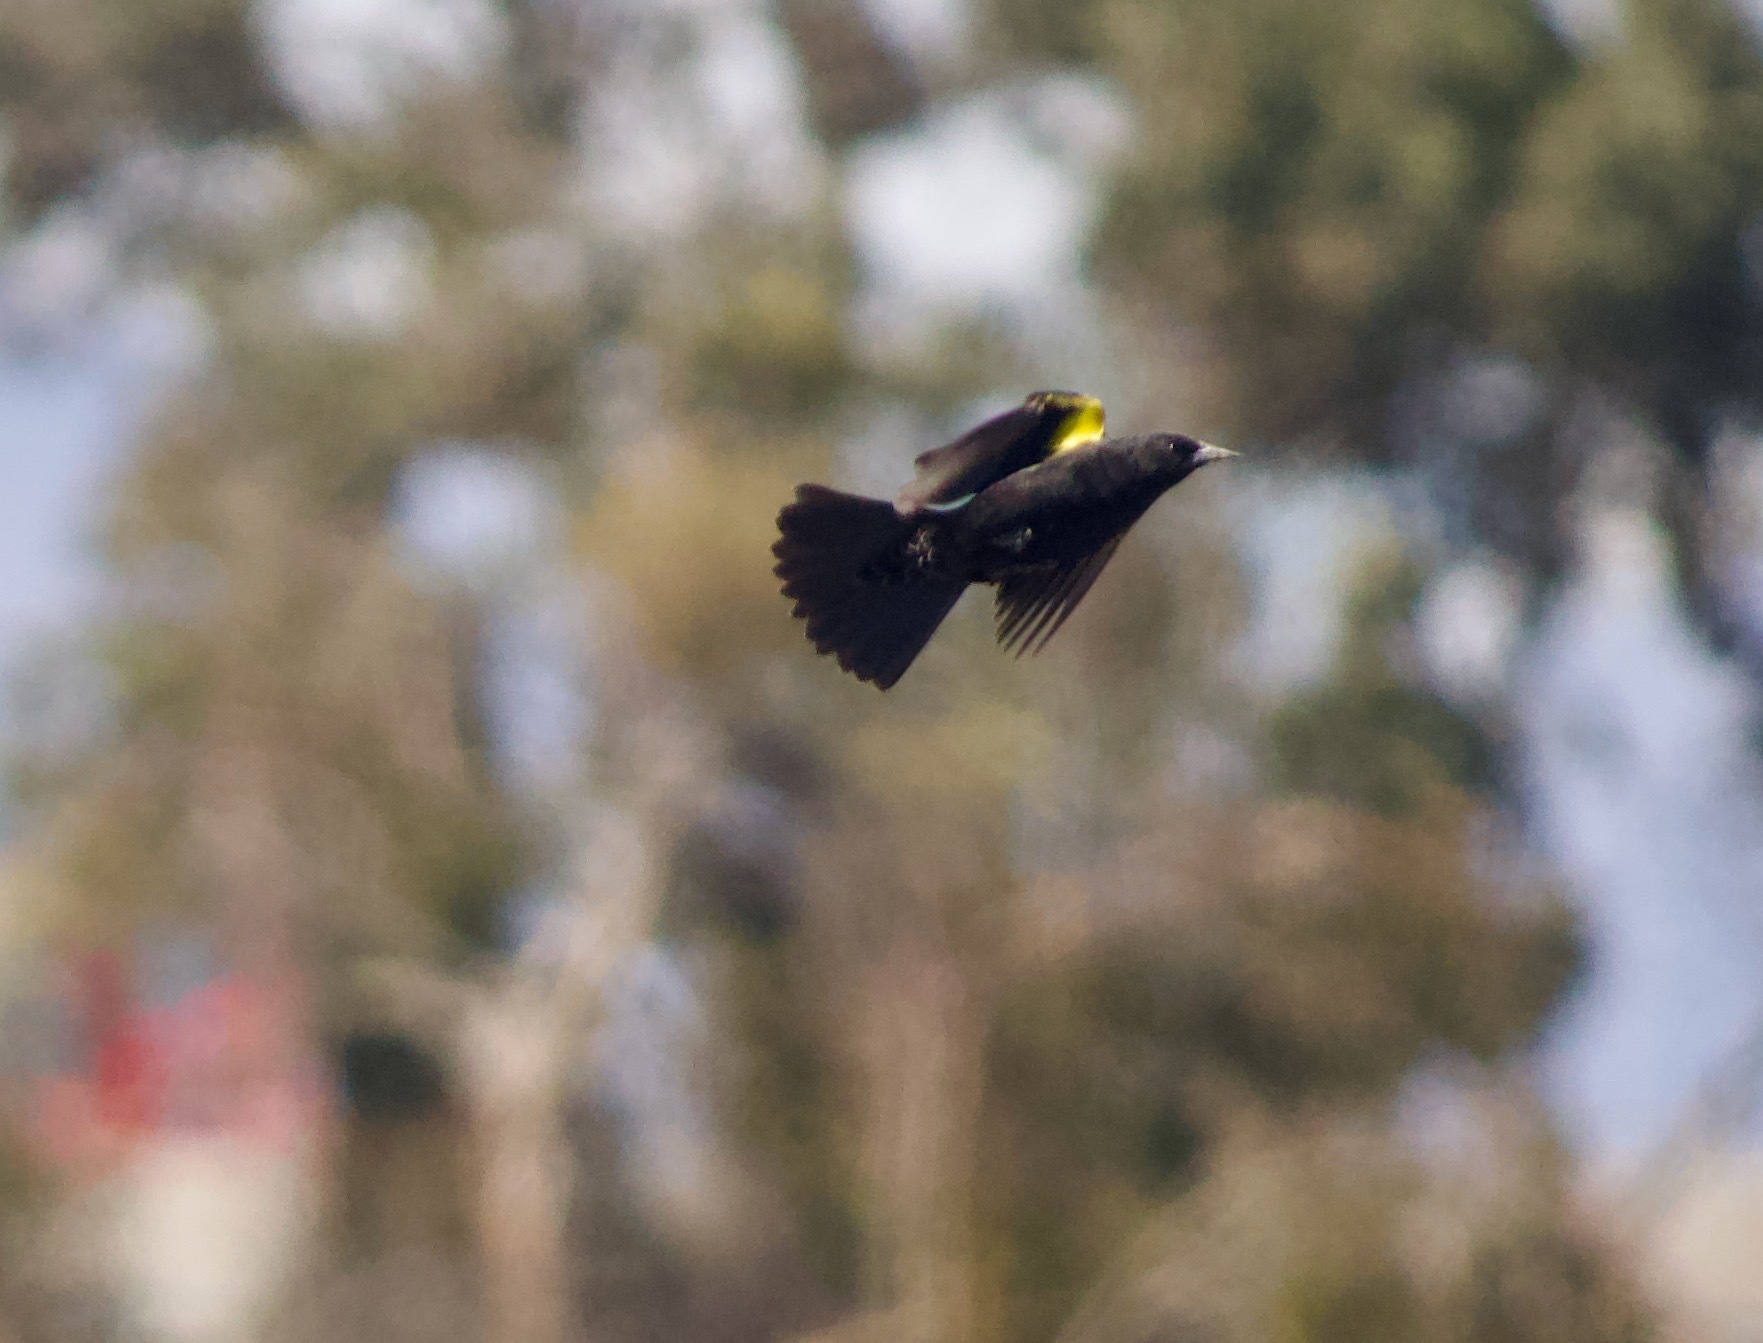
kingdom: Animalia
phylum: Chordata
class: Aves
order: Passeriformes
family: Icteridae
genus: Agelasticus
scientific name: Agelasticus thilius
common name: Yellow-winged blackbird
